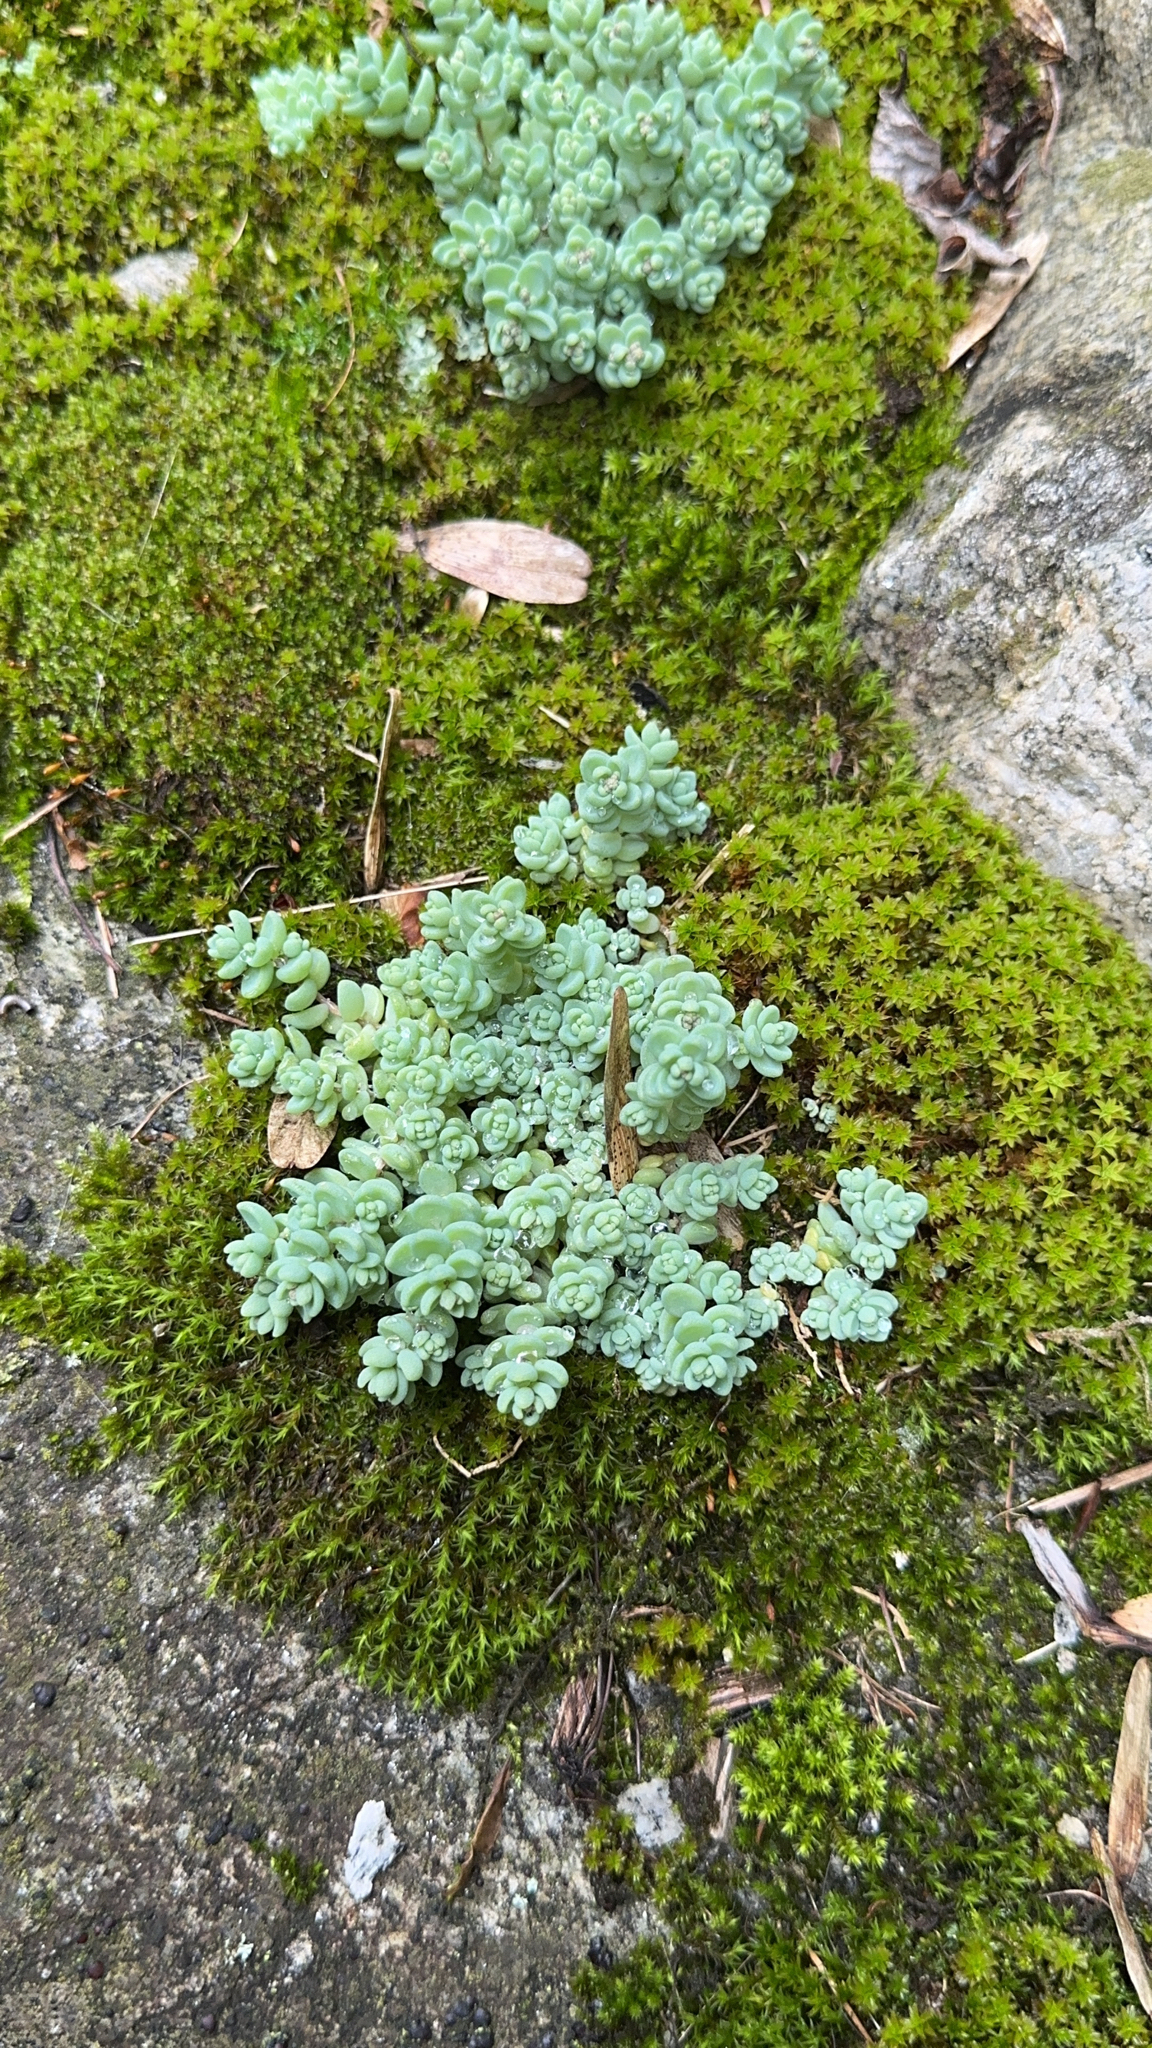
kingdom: Plantae
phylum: Tracheophyta
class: Magnoliopsida
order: Saxifragales
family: Crassulaceae
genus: Sedum
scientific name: Sedum dasyphyllum
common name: Thick-leaf stonecrop
